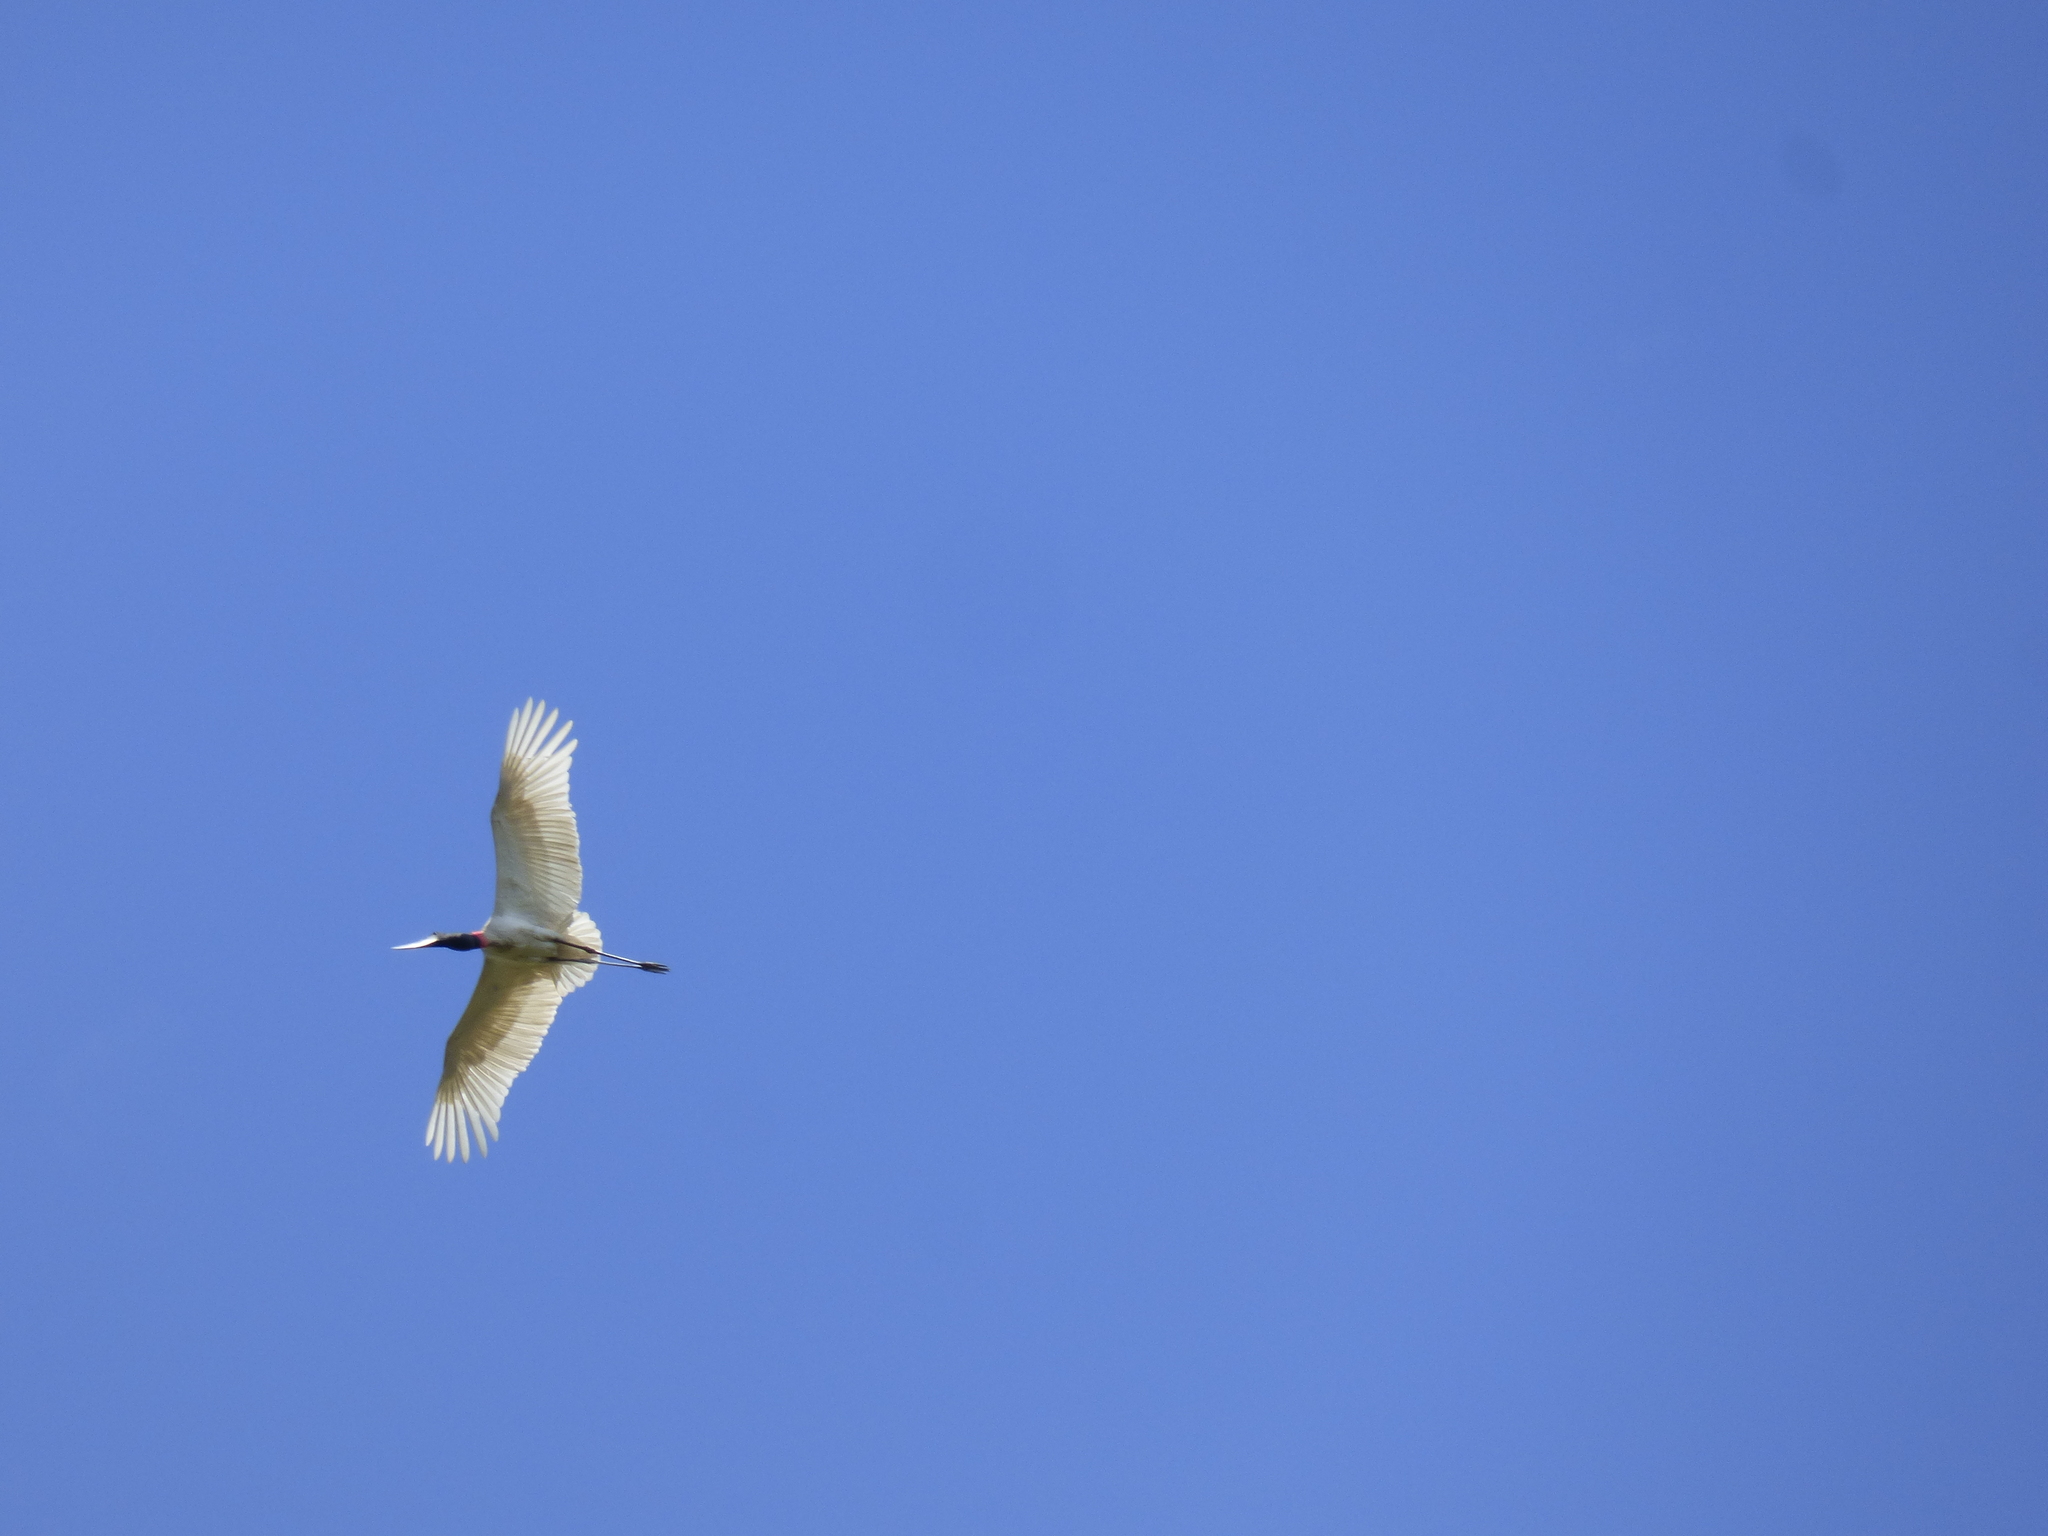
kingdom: Animalia
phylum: Chordata
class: Aves
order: Ciconiiformes
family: Ciconiidae
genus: Jabiru
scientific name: Jabiru mycteria
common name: Jabiru
